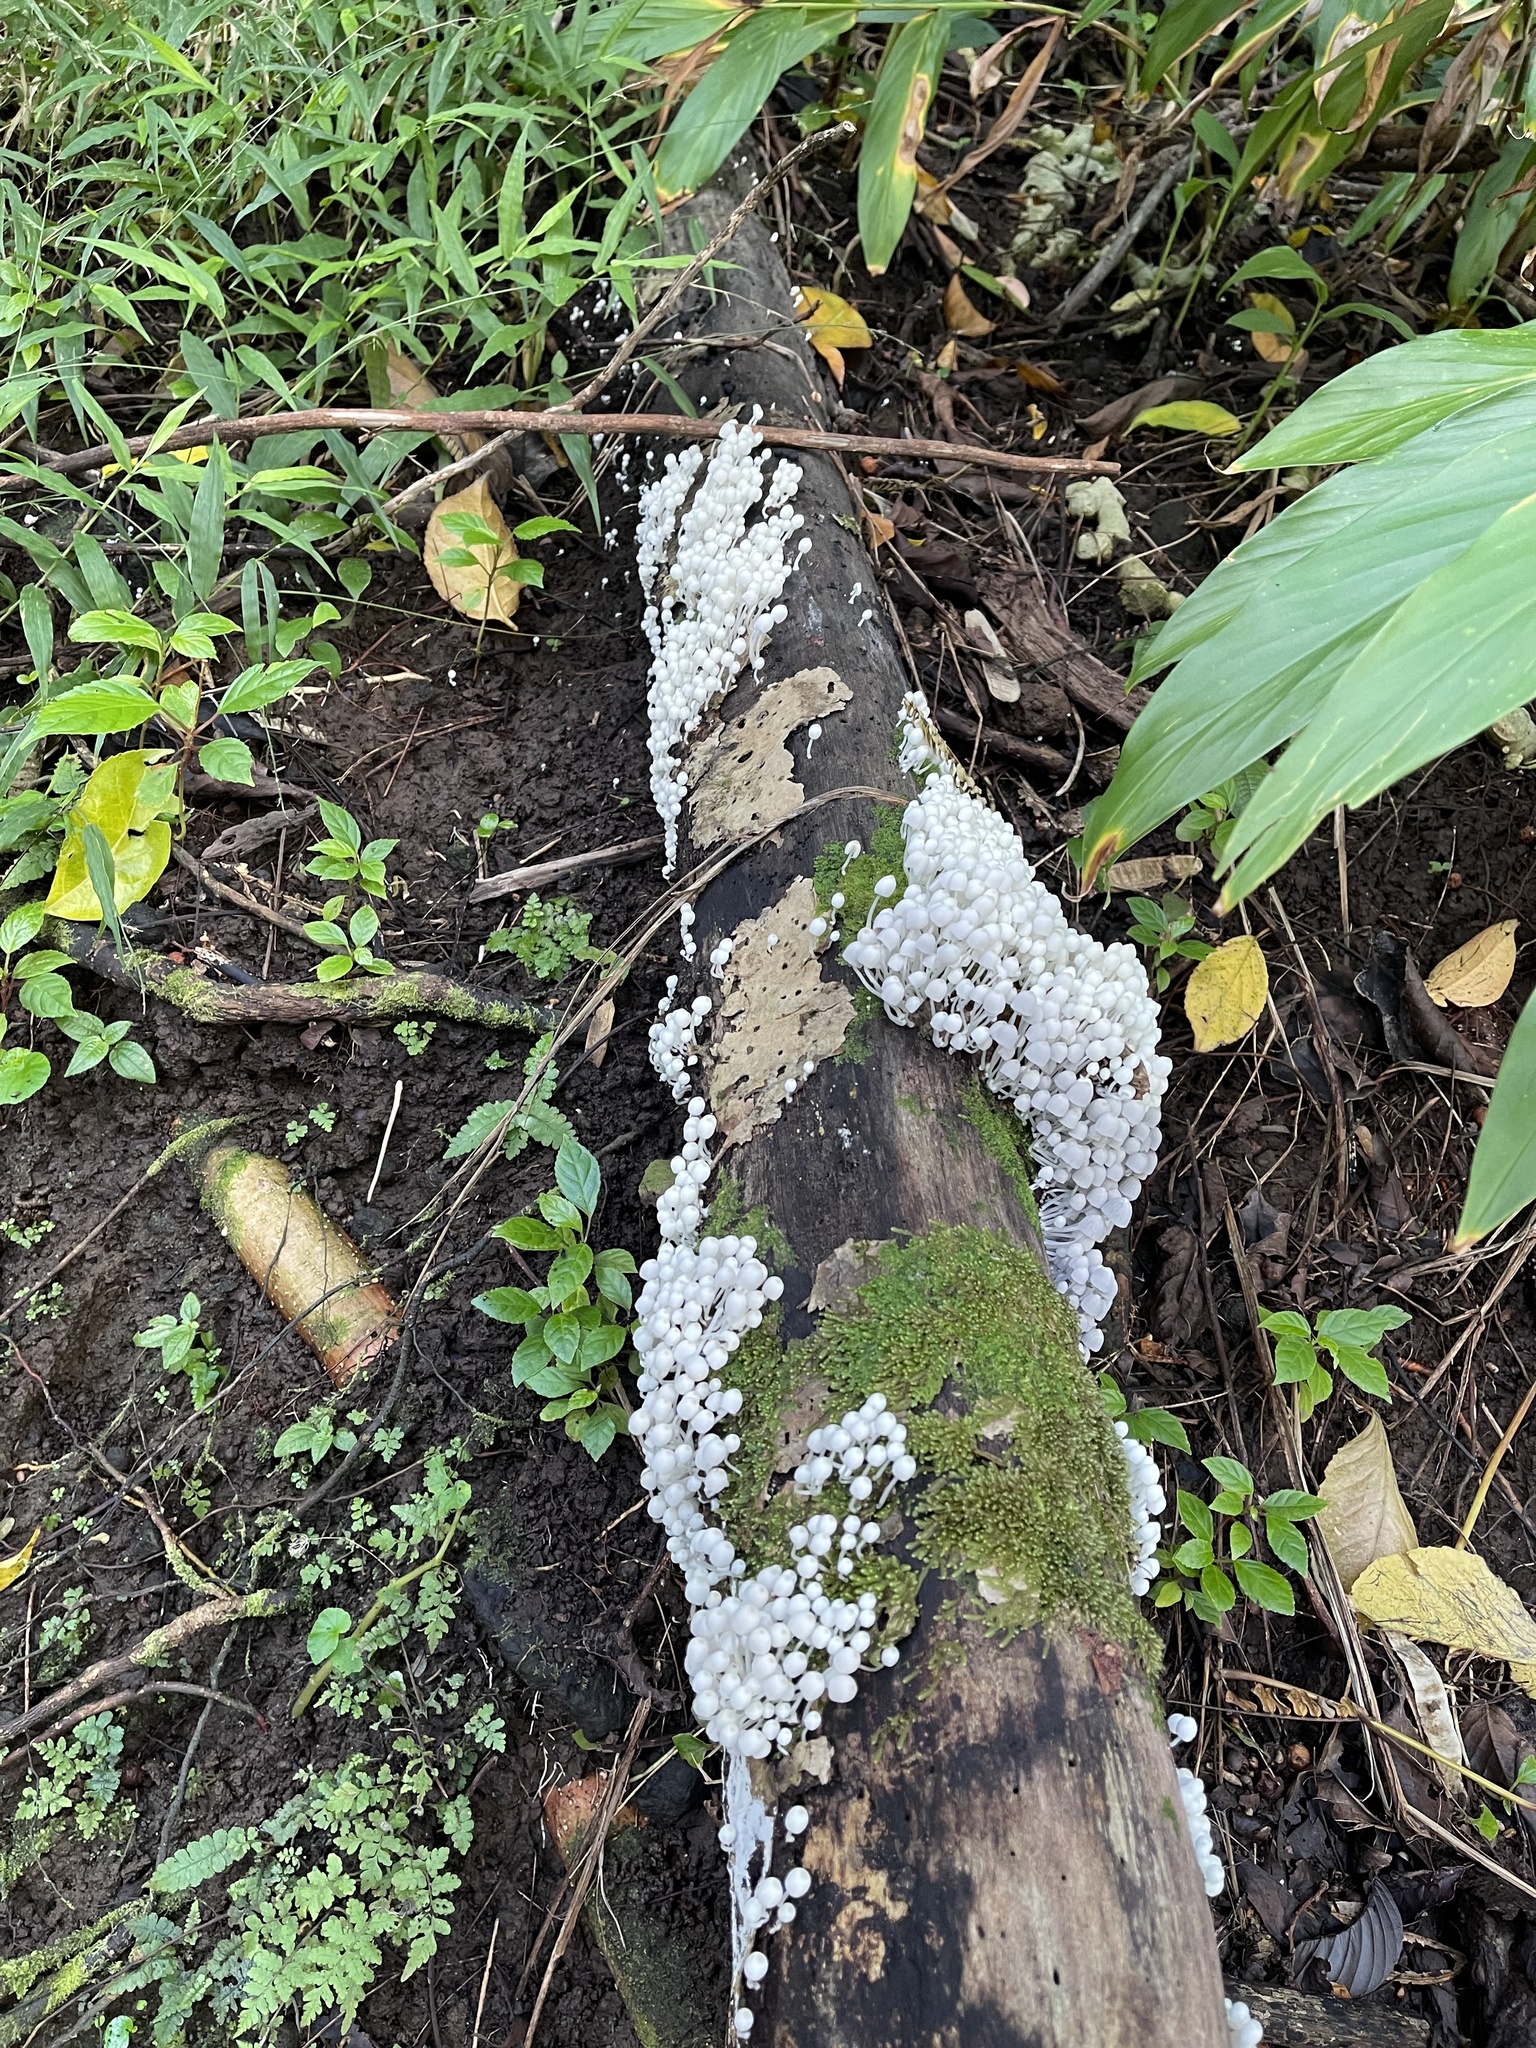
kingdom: Fungi
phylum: Basidiomycota
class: Agaricomycetes
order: Agaricales
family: Psathyrellaceae
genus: Coprinellus
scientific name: Coprinellus disseminatus
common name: Fairies' bonnets
